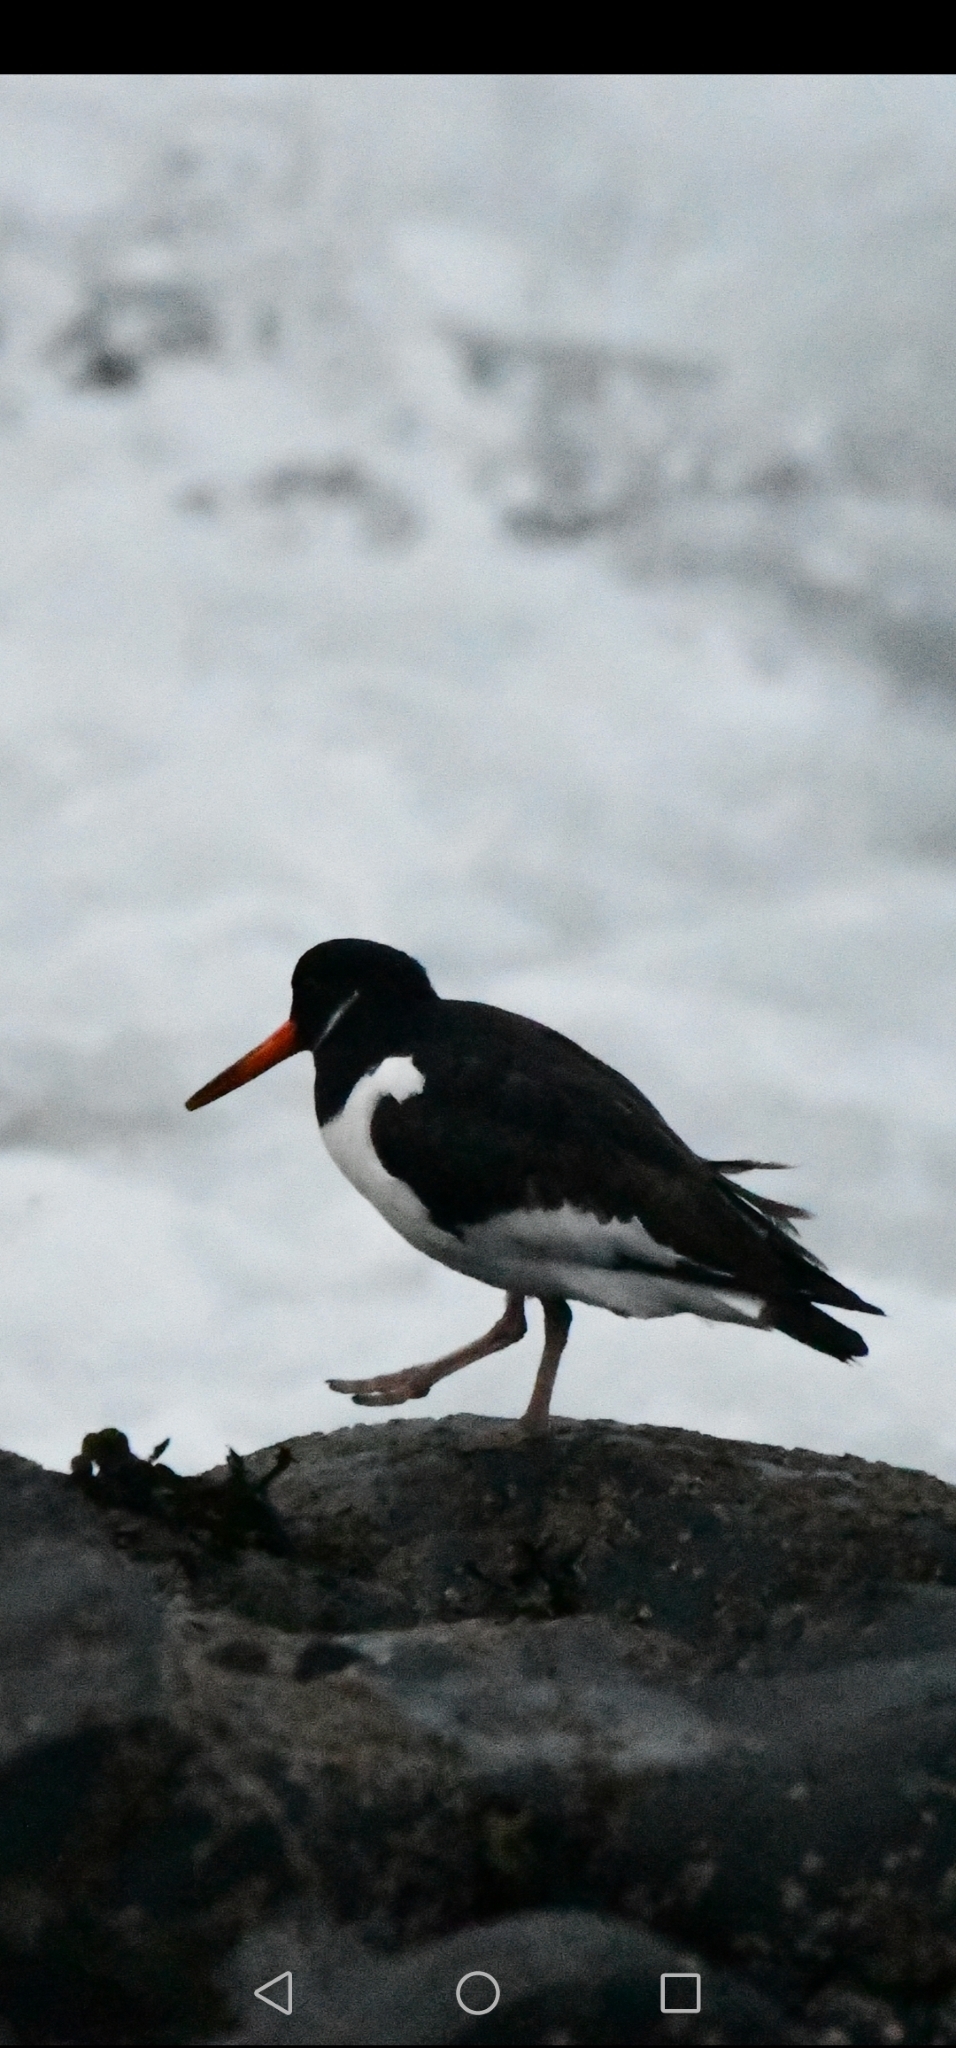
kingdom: Animalia
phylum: Chordata
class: Aves
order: Charadriiformes
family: Haematopodidae
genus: Haematopus
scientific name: Haematopus ostralegus
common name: Eurasian oystercatcher
